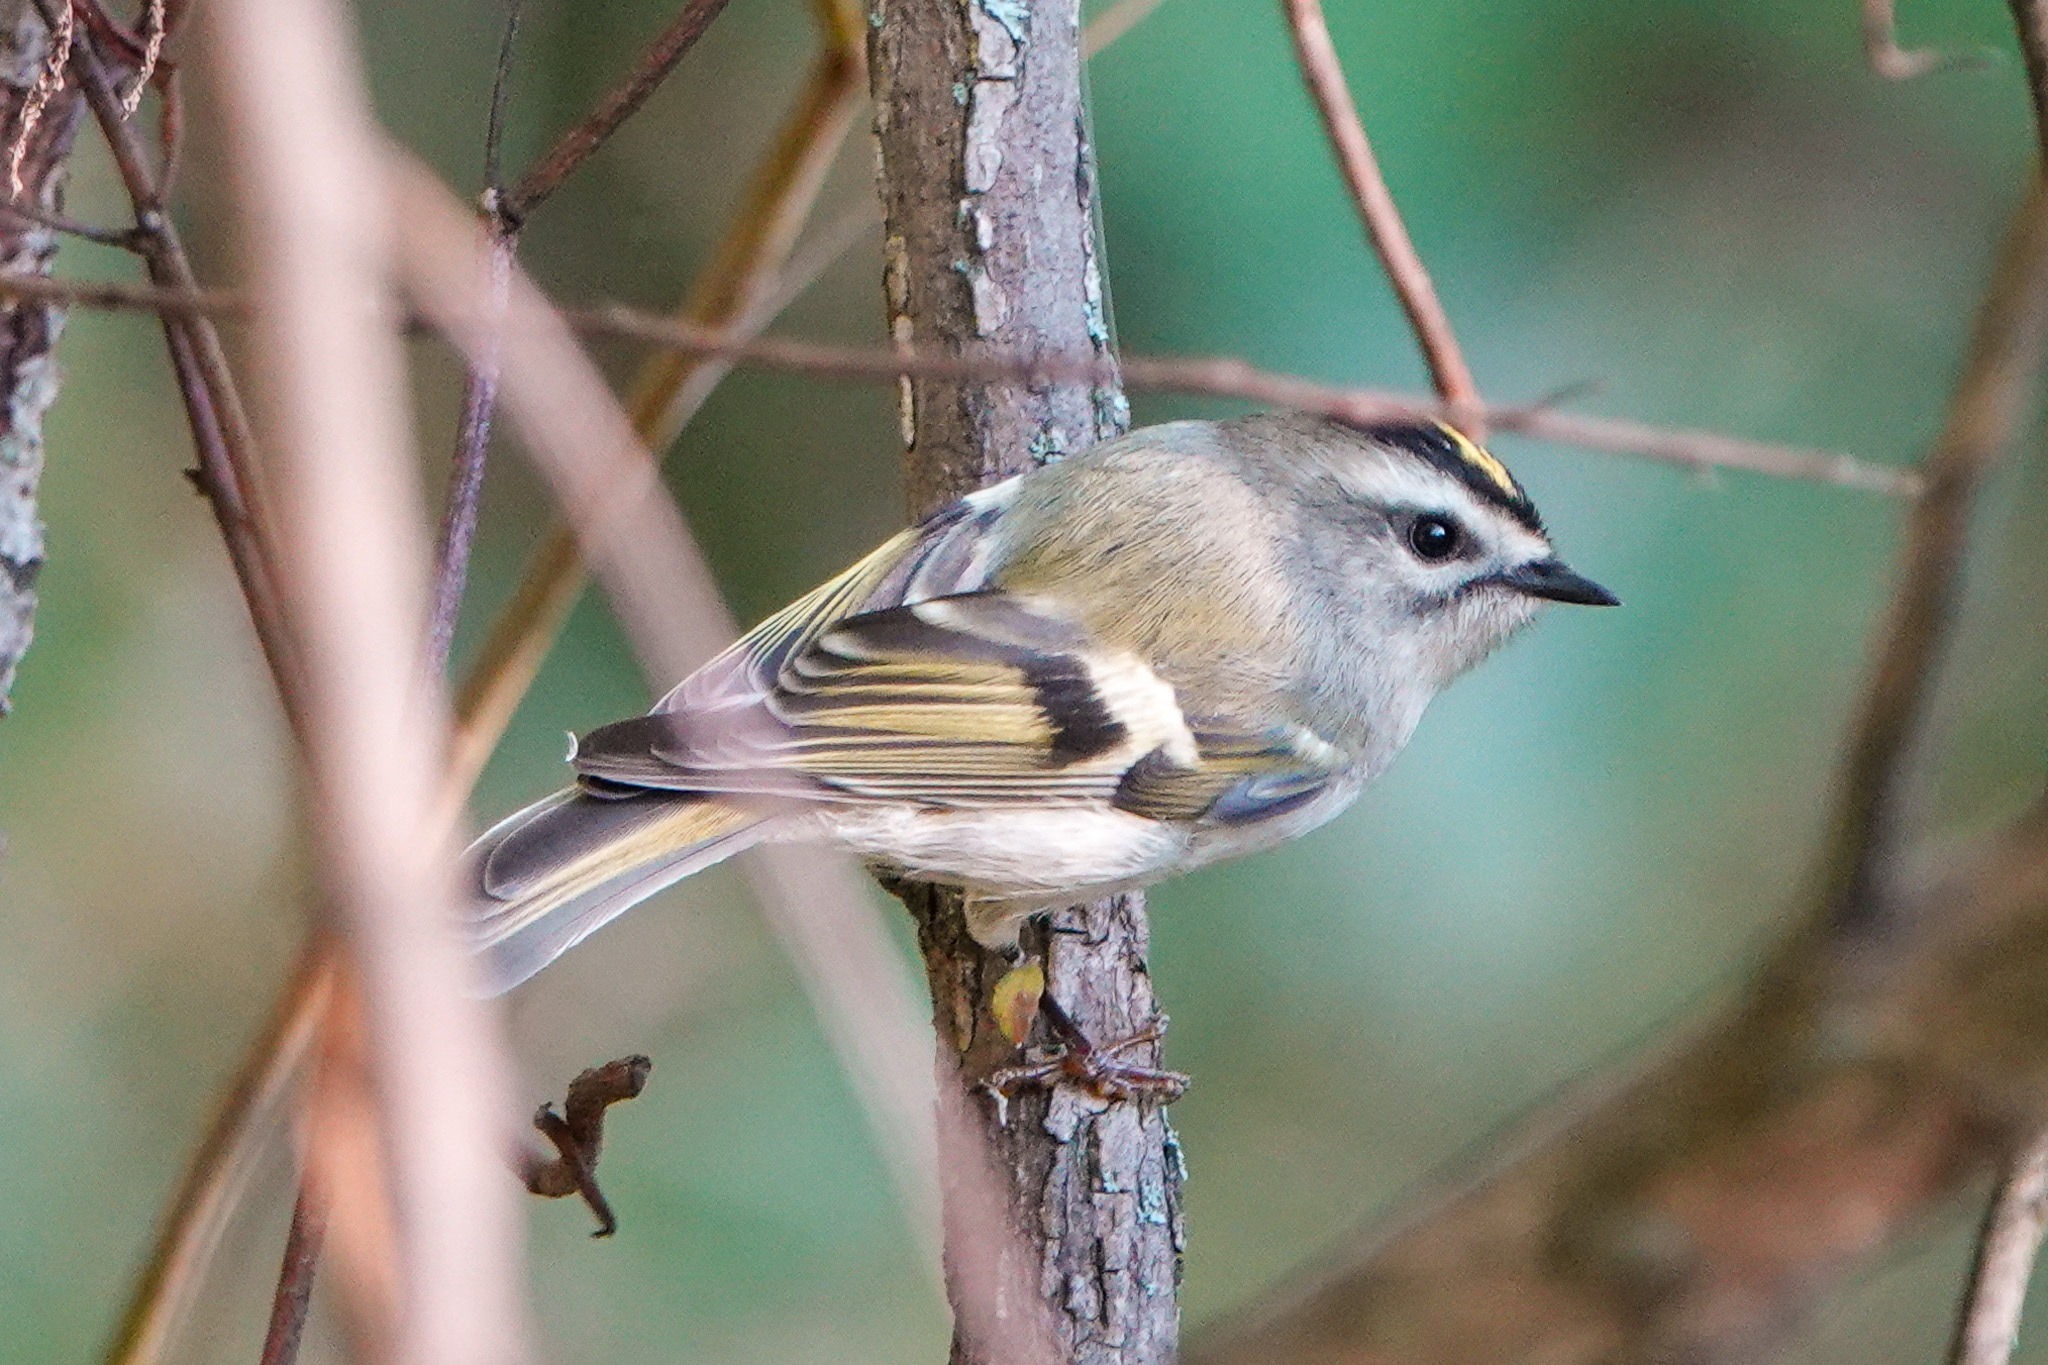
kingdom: Animalia
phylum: Chordata
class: Aves
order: Passeriformes
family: Regulidae
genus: Regulus
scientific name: Regulus satrapa
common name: Golden-crowned kinglet
